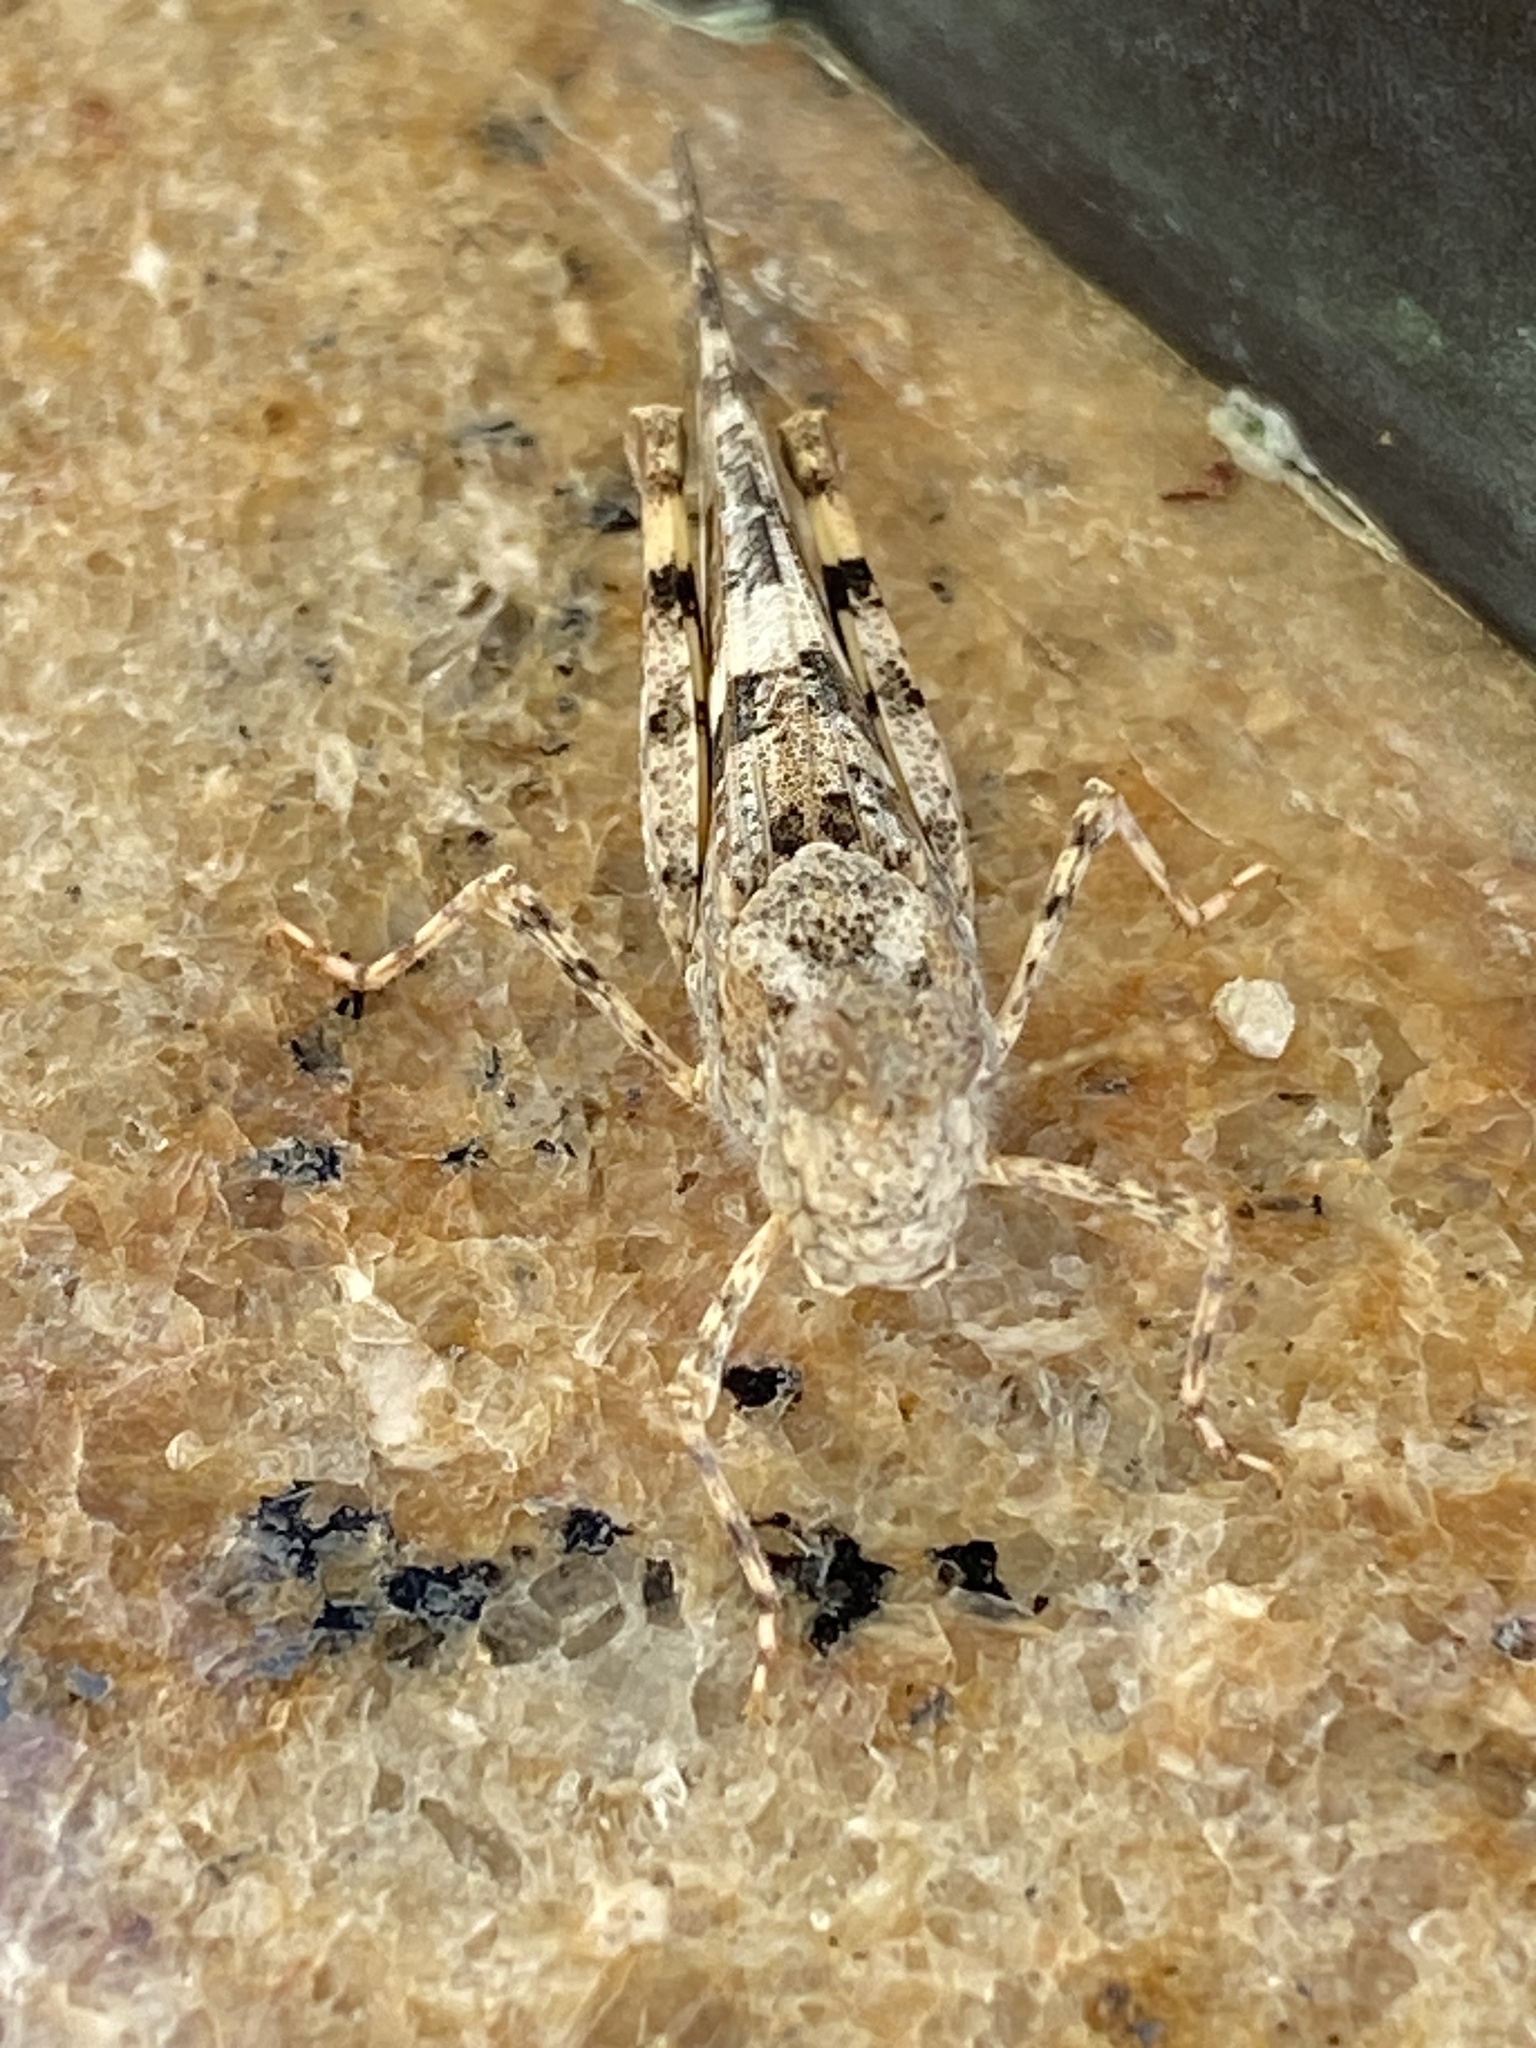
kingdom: Animalia
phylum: Arthropoda
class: Insecta
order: Orthoptera
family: Acrididae
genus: Trimerotropis
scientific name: Trimerotropis pallidipennis
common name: Pallid-winged grasshopper
